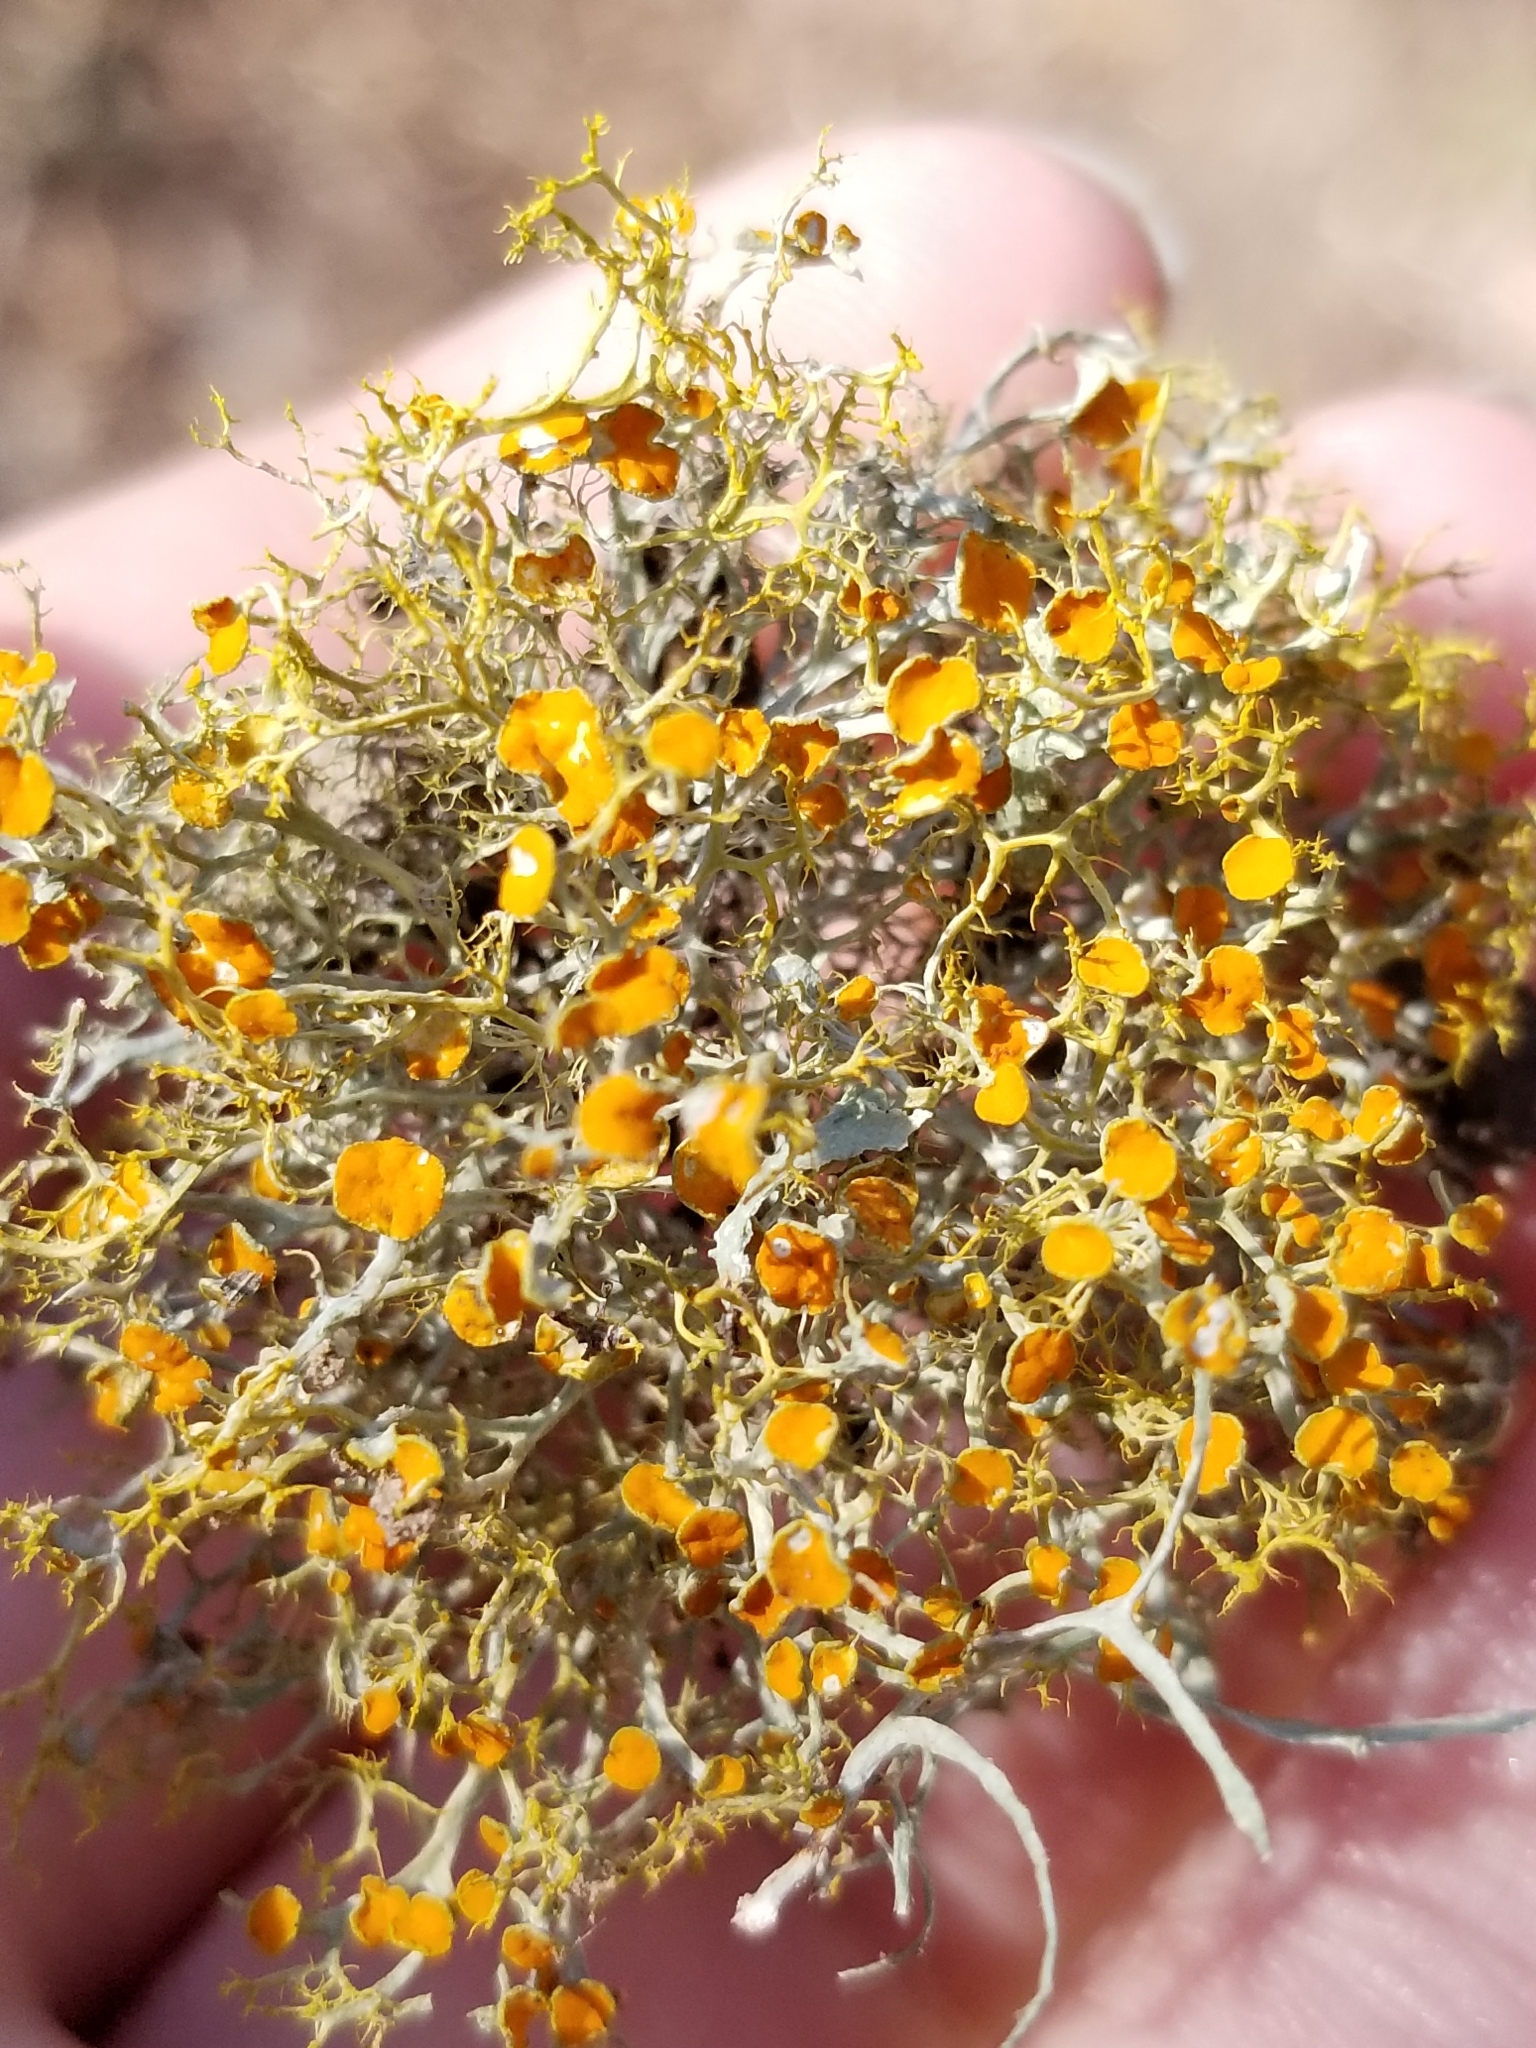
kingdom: Fungi
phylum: Ascomycota
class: Lecanoromycetes
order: Teloschistales
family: Teloschistaceae
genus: Teloschistes
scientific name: Teloschistes exilis
